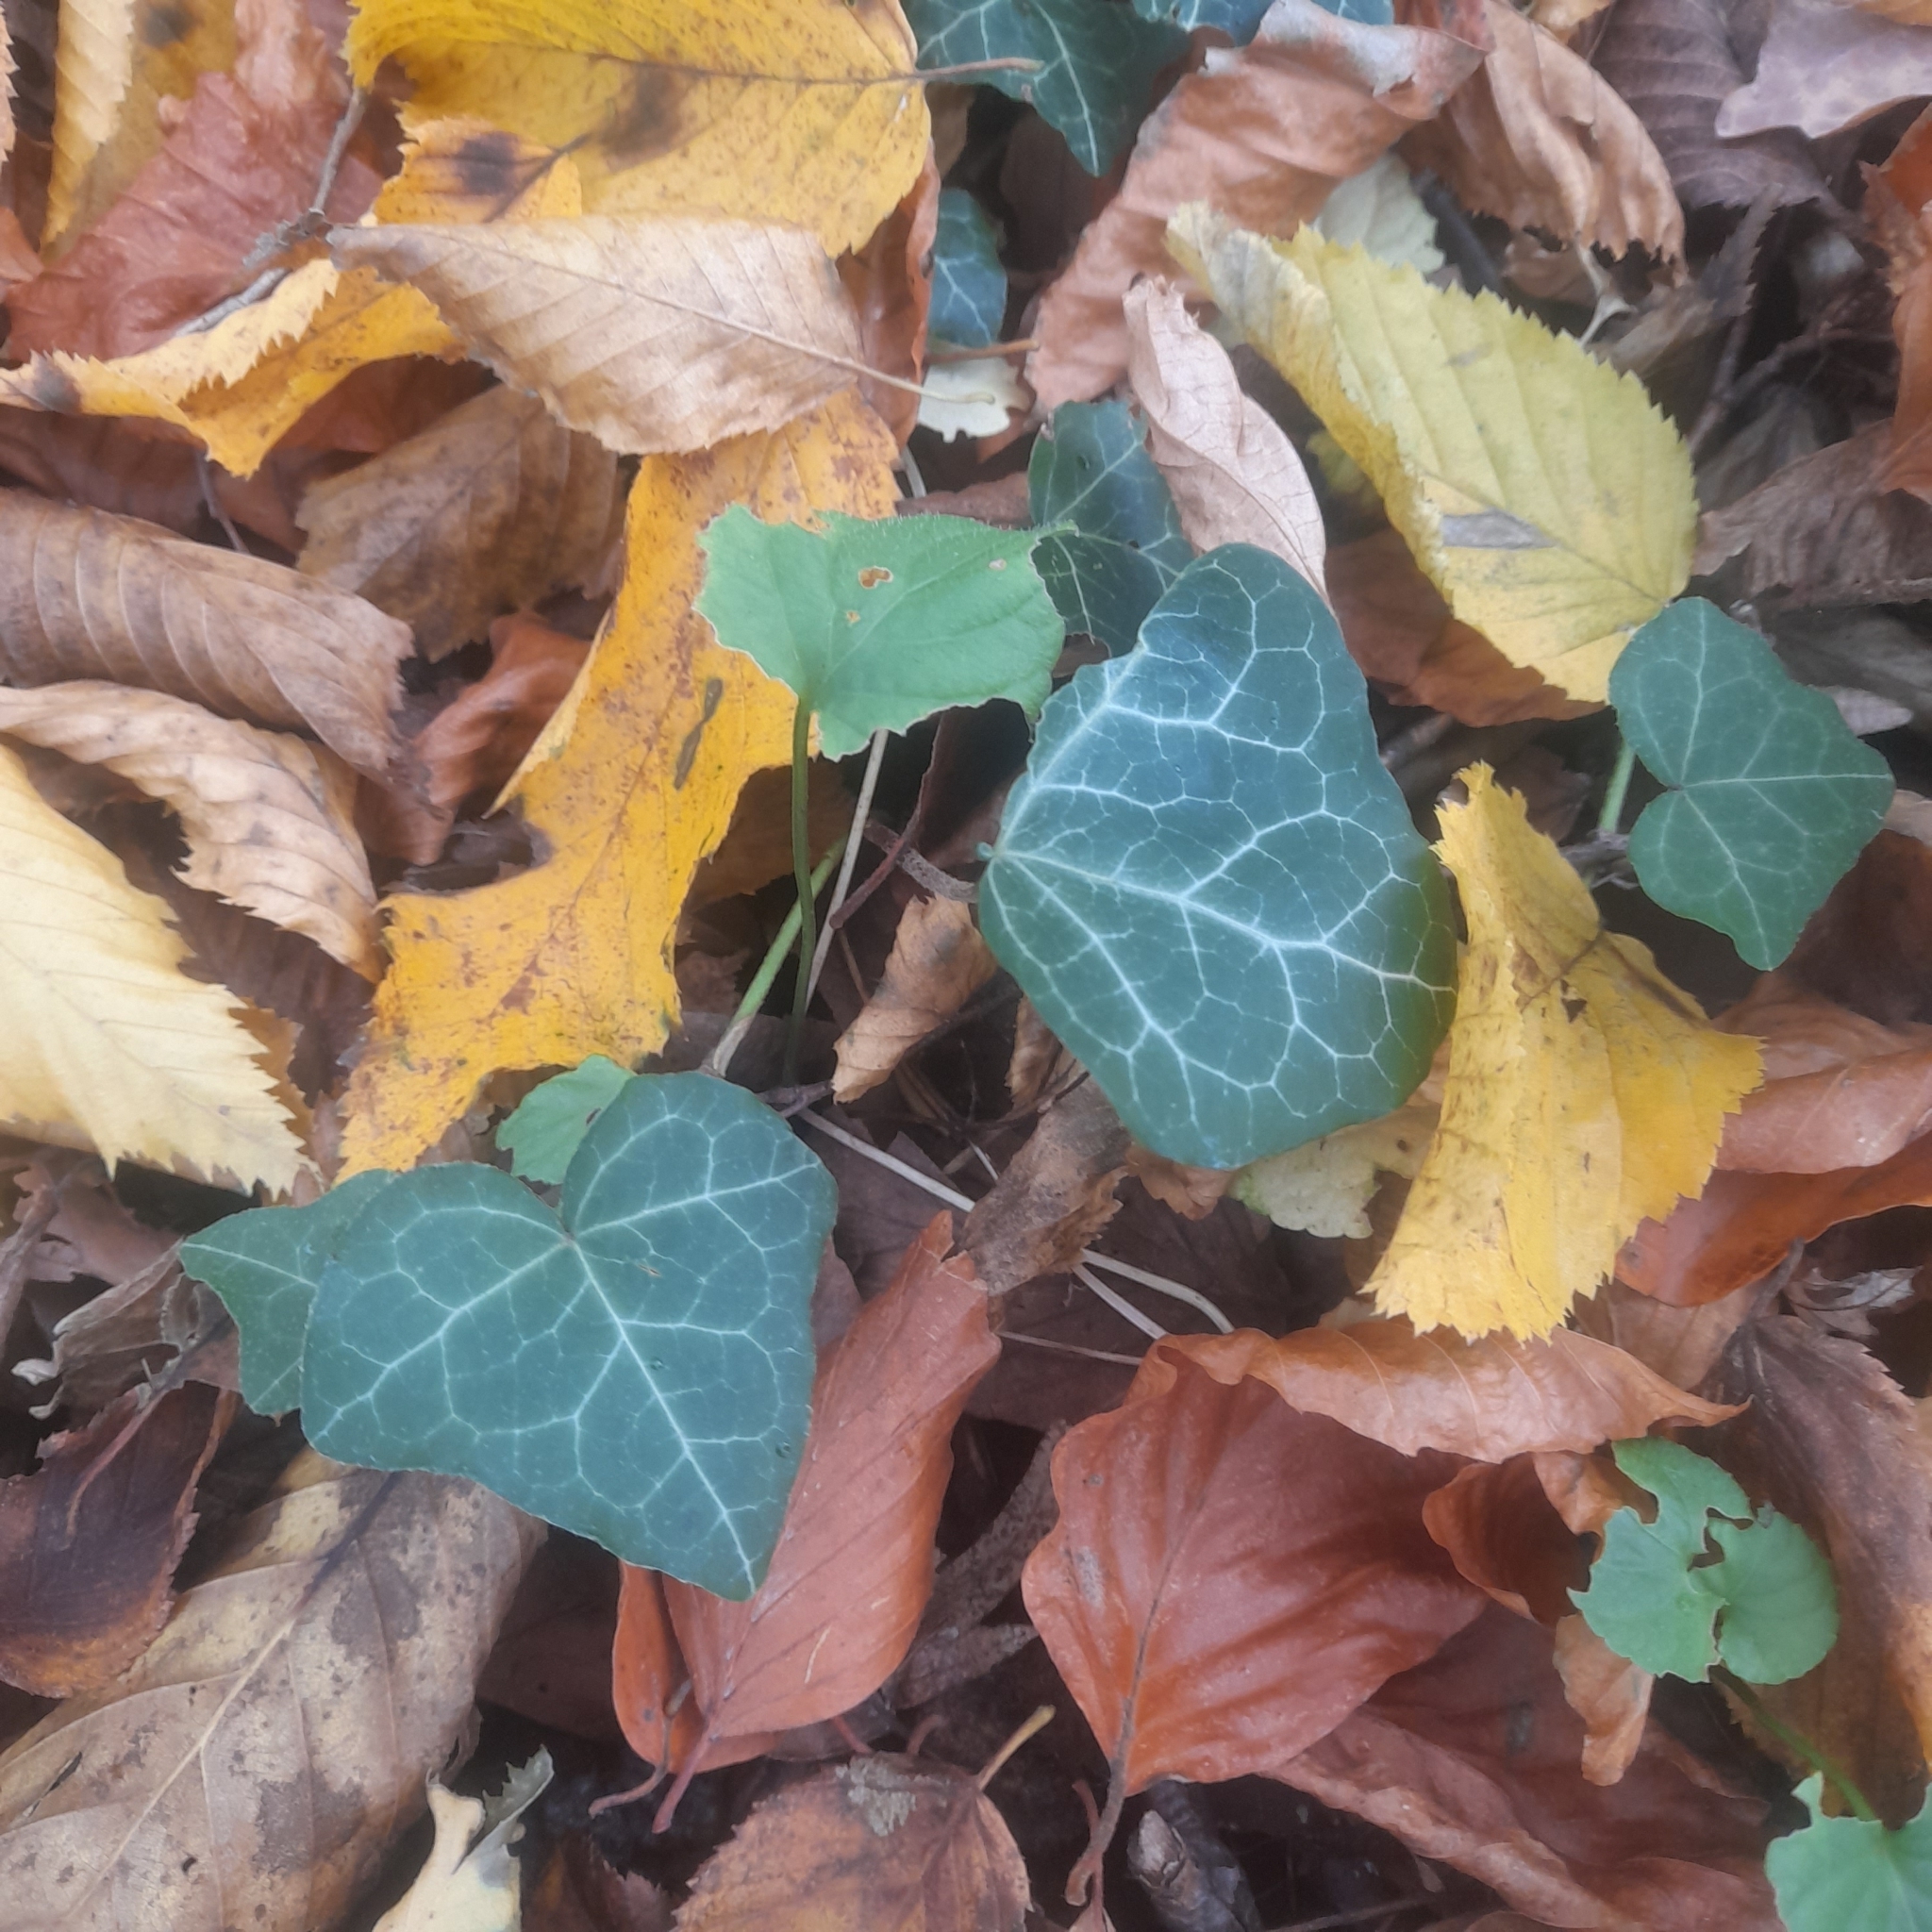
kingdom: Plantae
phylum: Tracheophyta
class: Magnoliopsida
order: Apiales
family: Araliaceae
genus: Hedera
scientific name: Hedera helix
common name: Ivy
